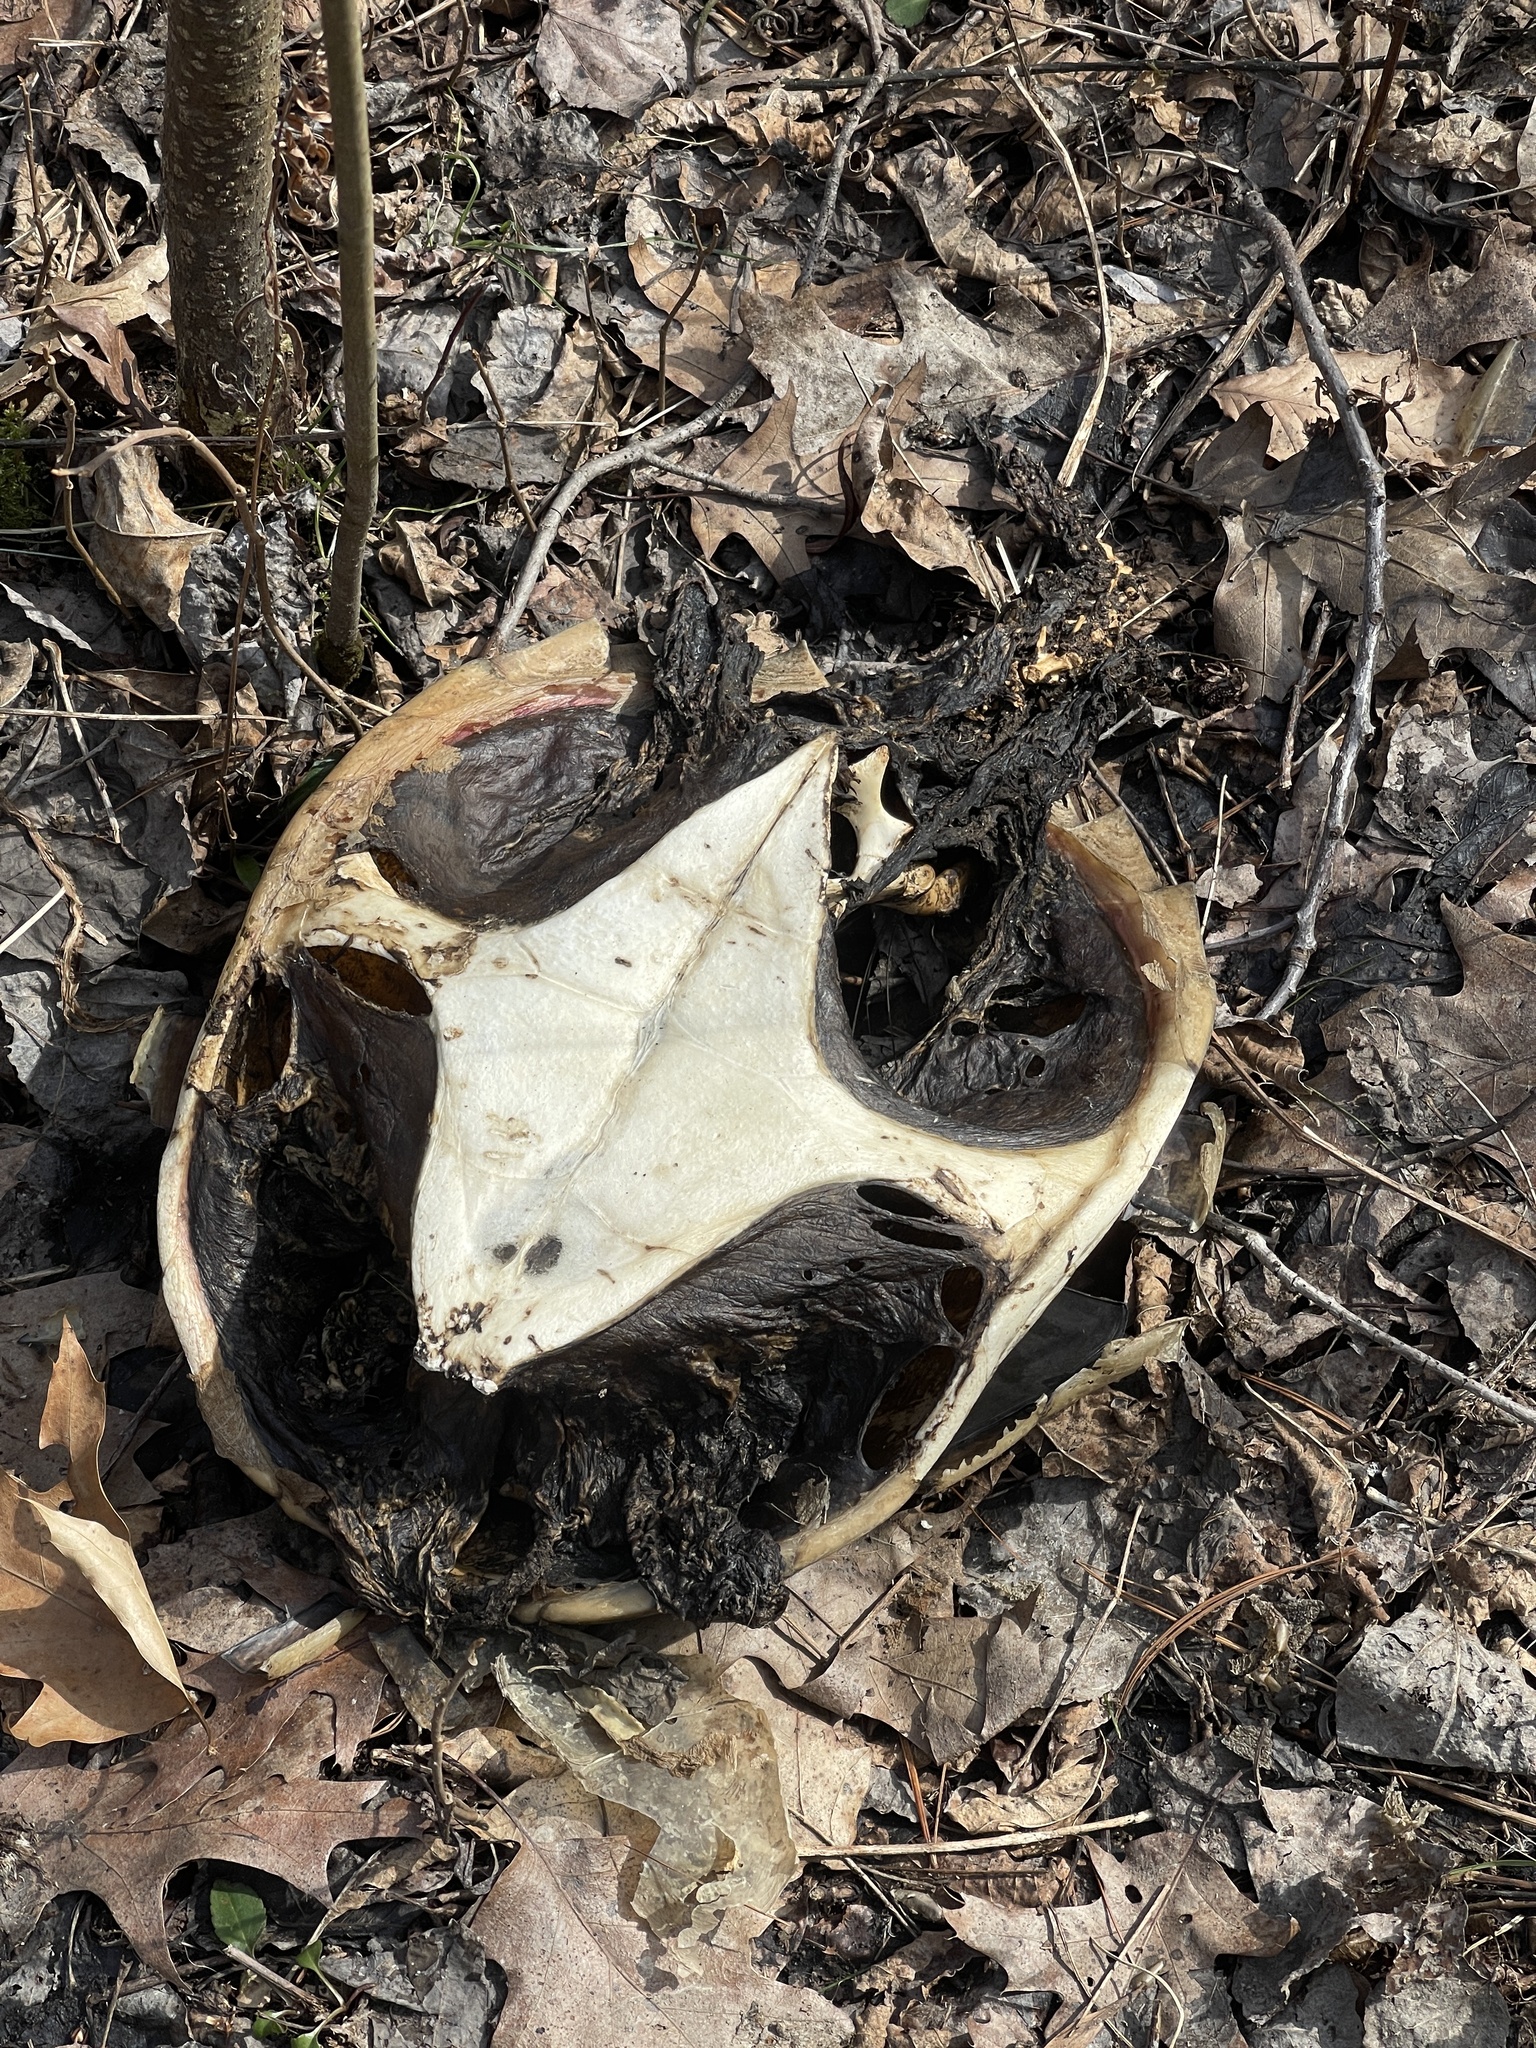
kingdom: Animalia
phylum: Chordata
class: Testudines
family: Chelydridae
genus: Chelydra
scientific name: Chelydra serpentina
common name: Common snapping turtle
